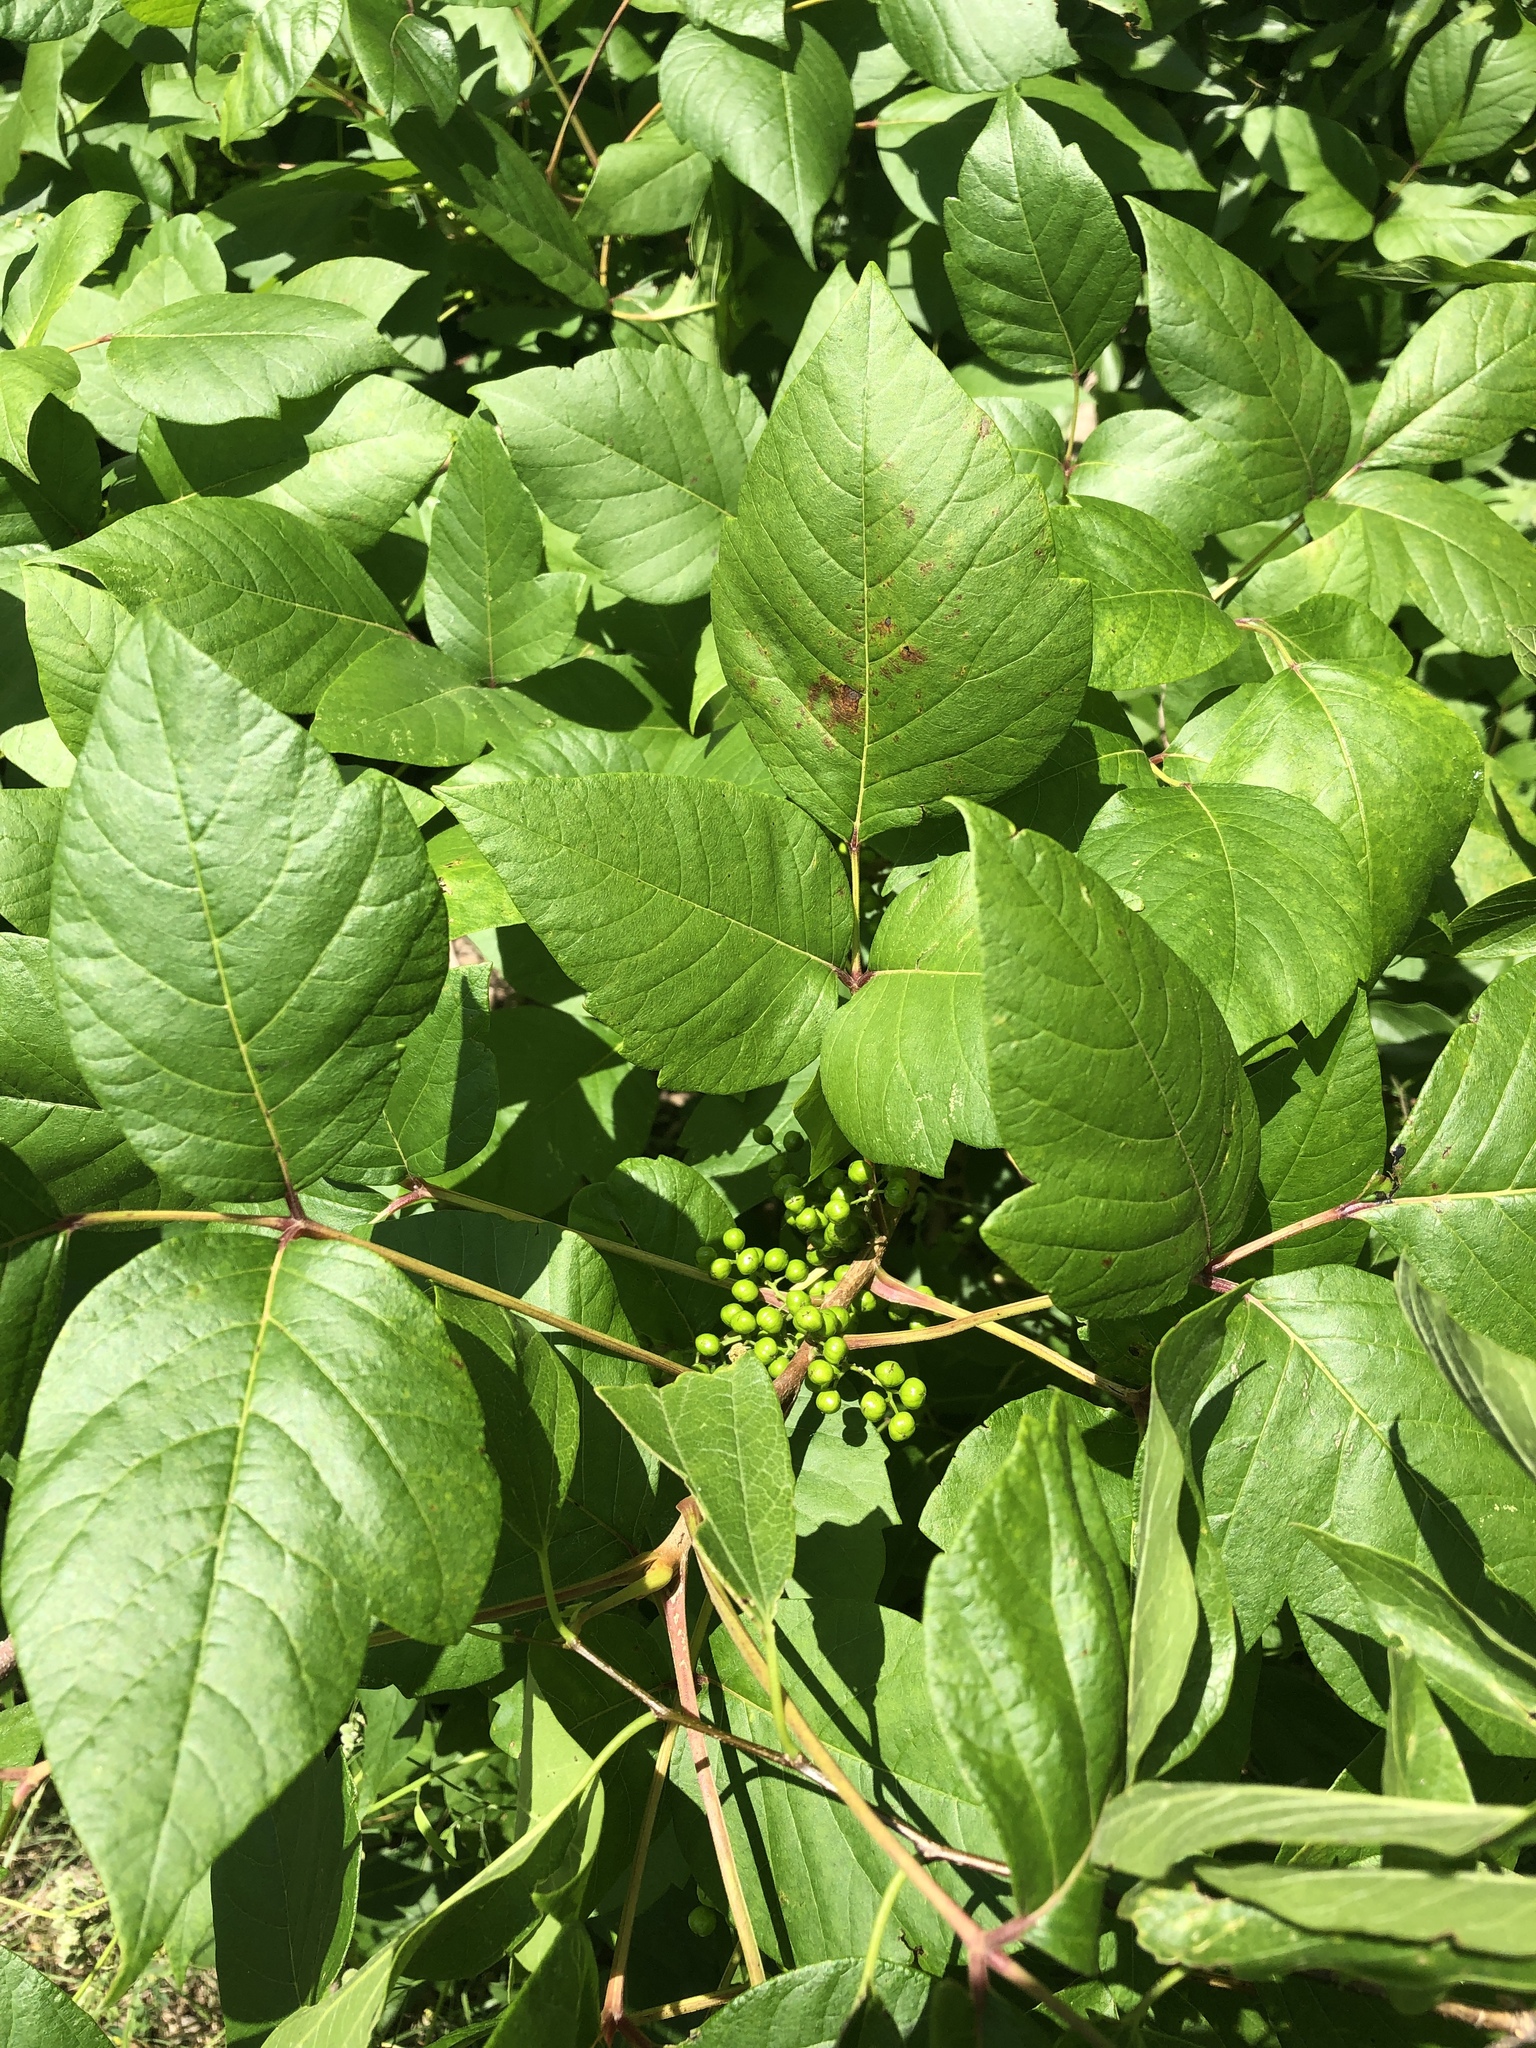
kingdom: Plantae
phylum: Tracheophyta
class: Magnoliopsida
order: Sapindales
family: Anacardiaceae
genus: Toxicodendron
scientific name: Toxicodendron radicans
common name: Poison ivy
